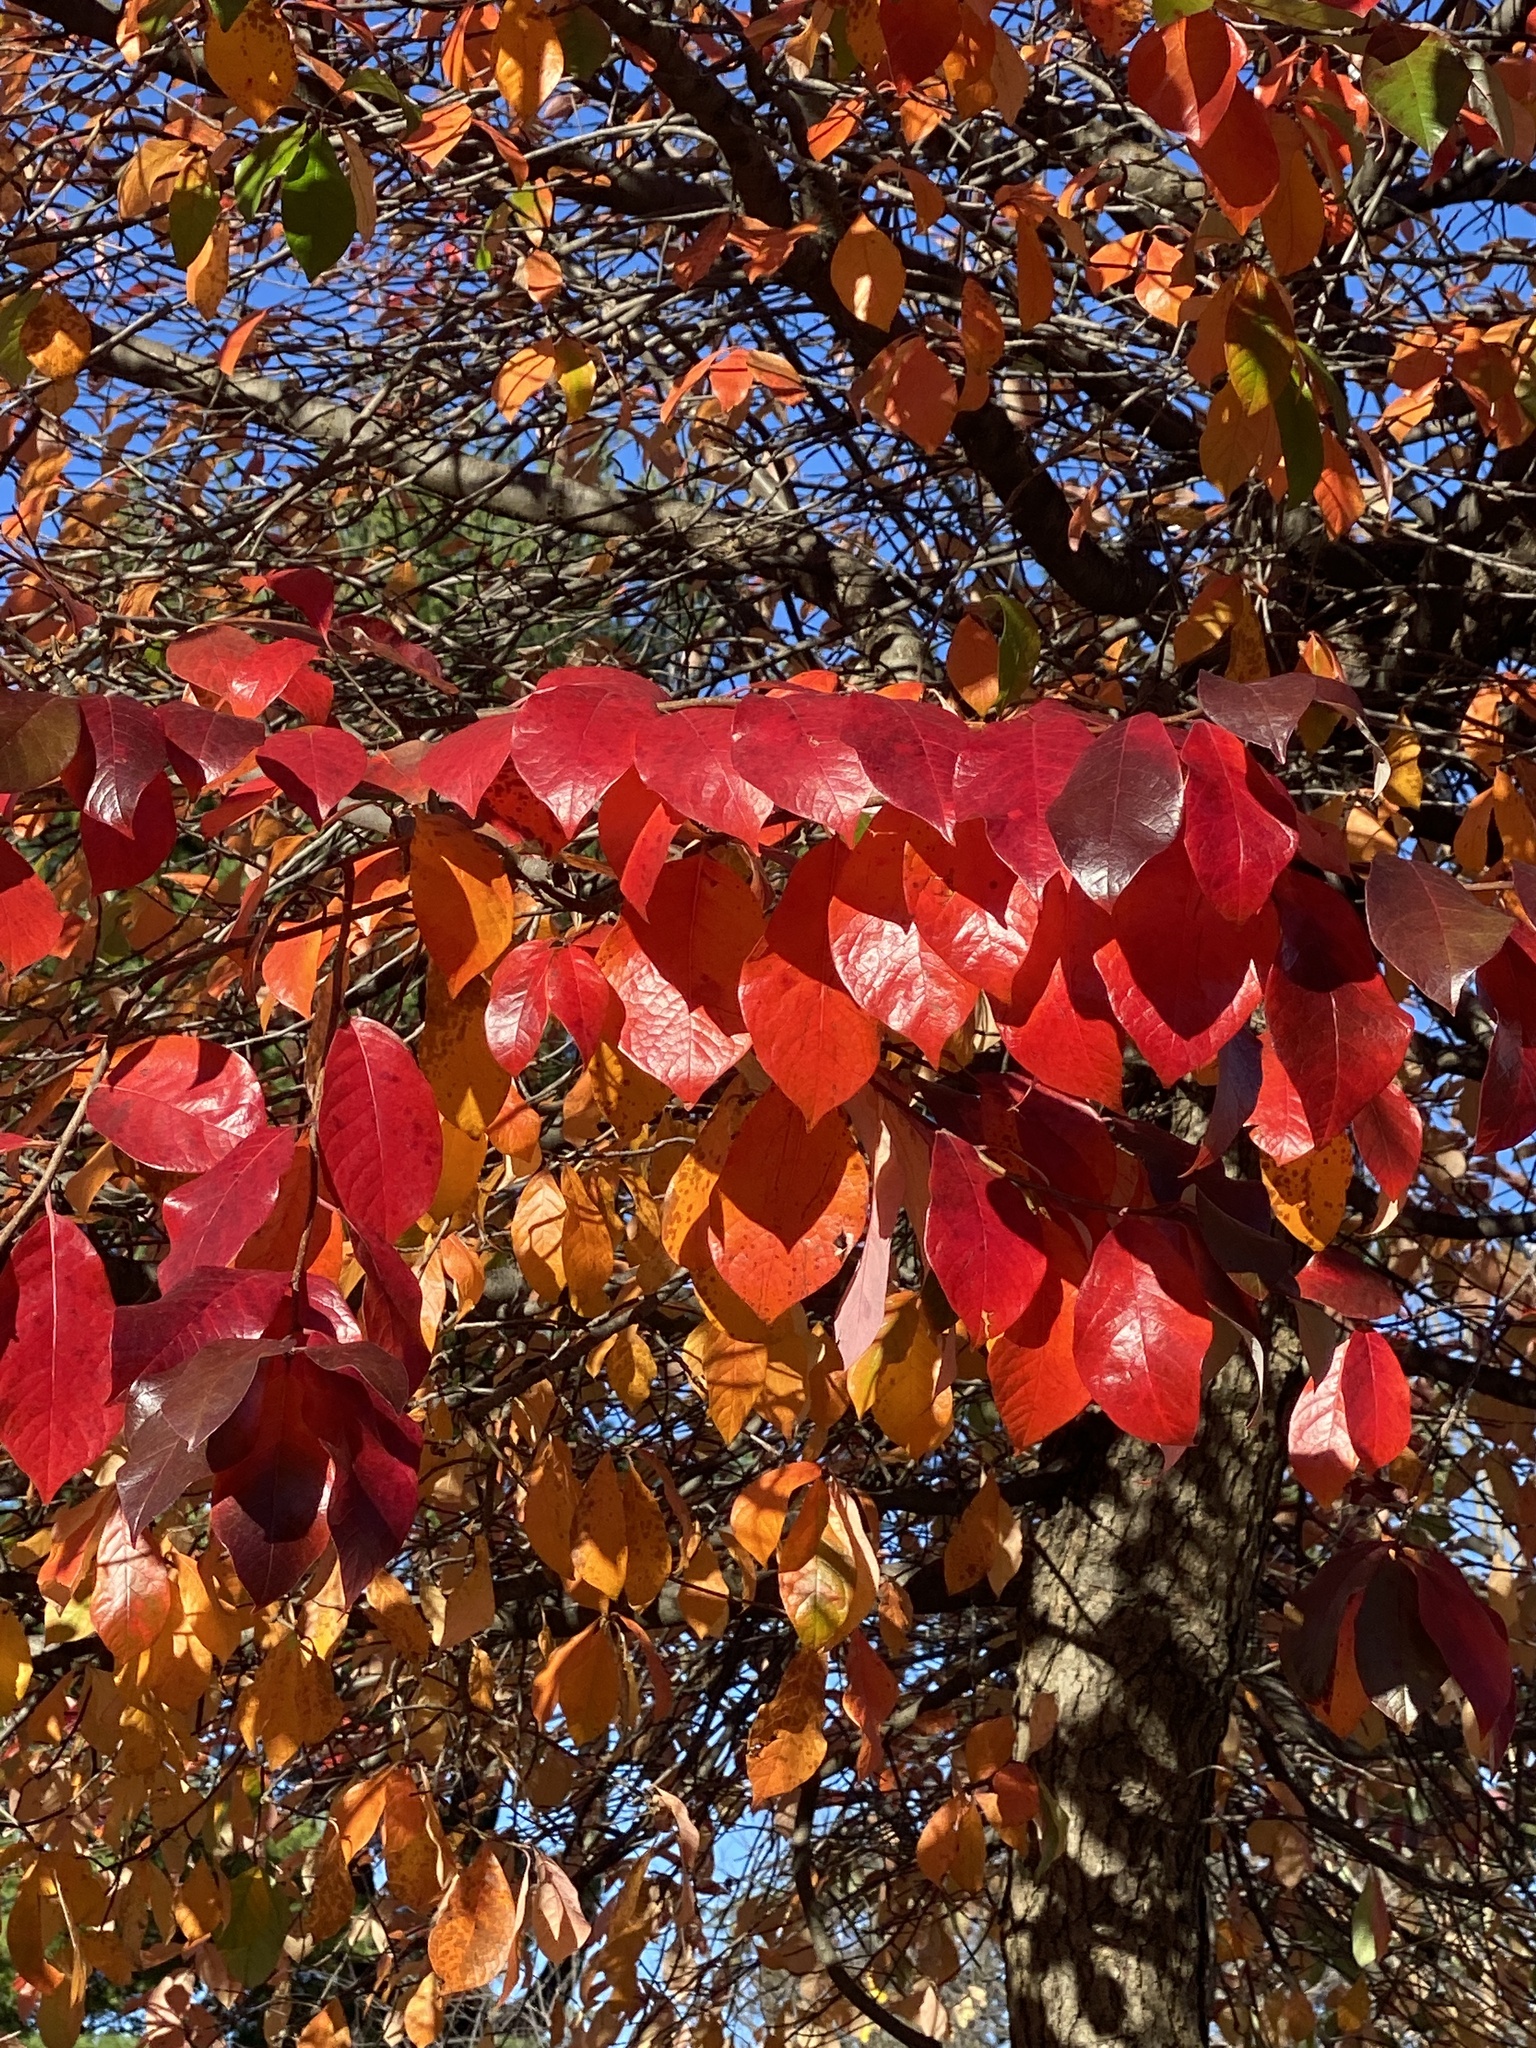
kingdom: Plantae
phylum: Tracheophyta
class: Magnoliopsida
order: Cornales
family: Nyssaceae
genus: Nyssa
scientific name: Nyssa sylvatica
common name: Black tupelo
